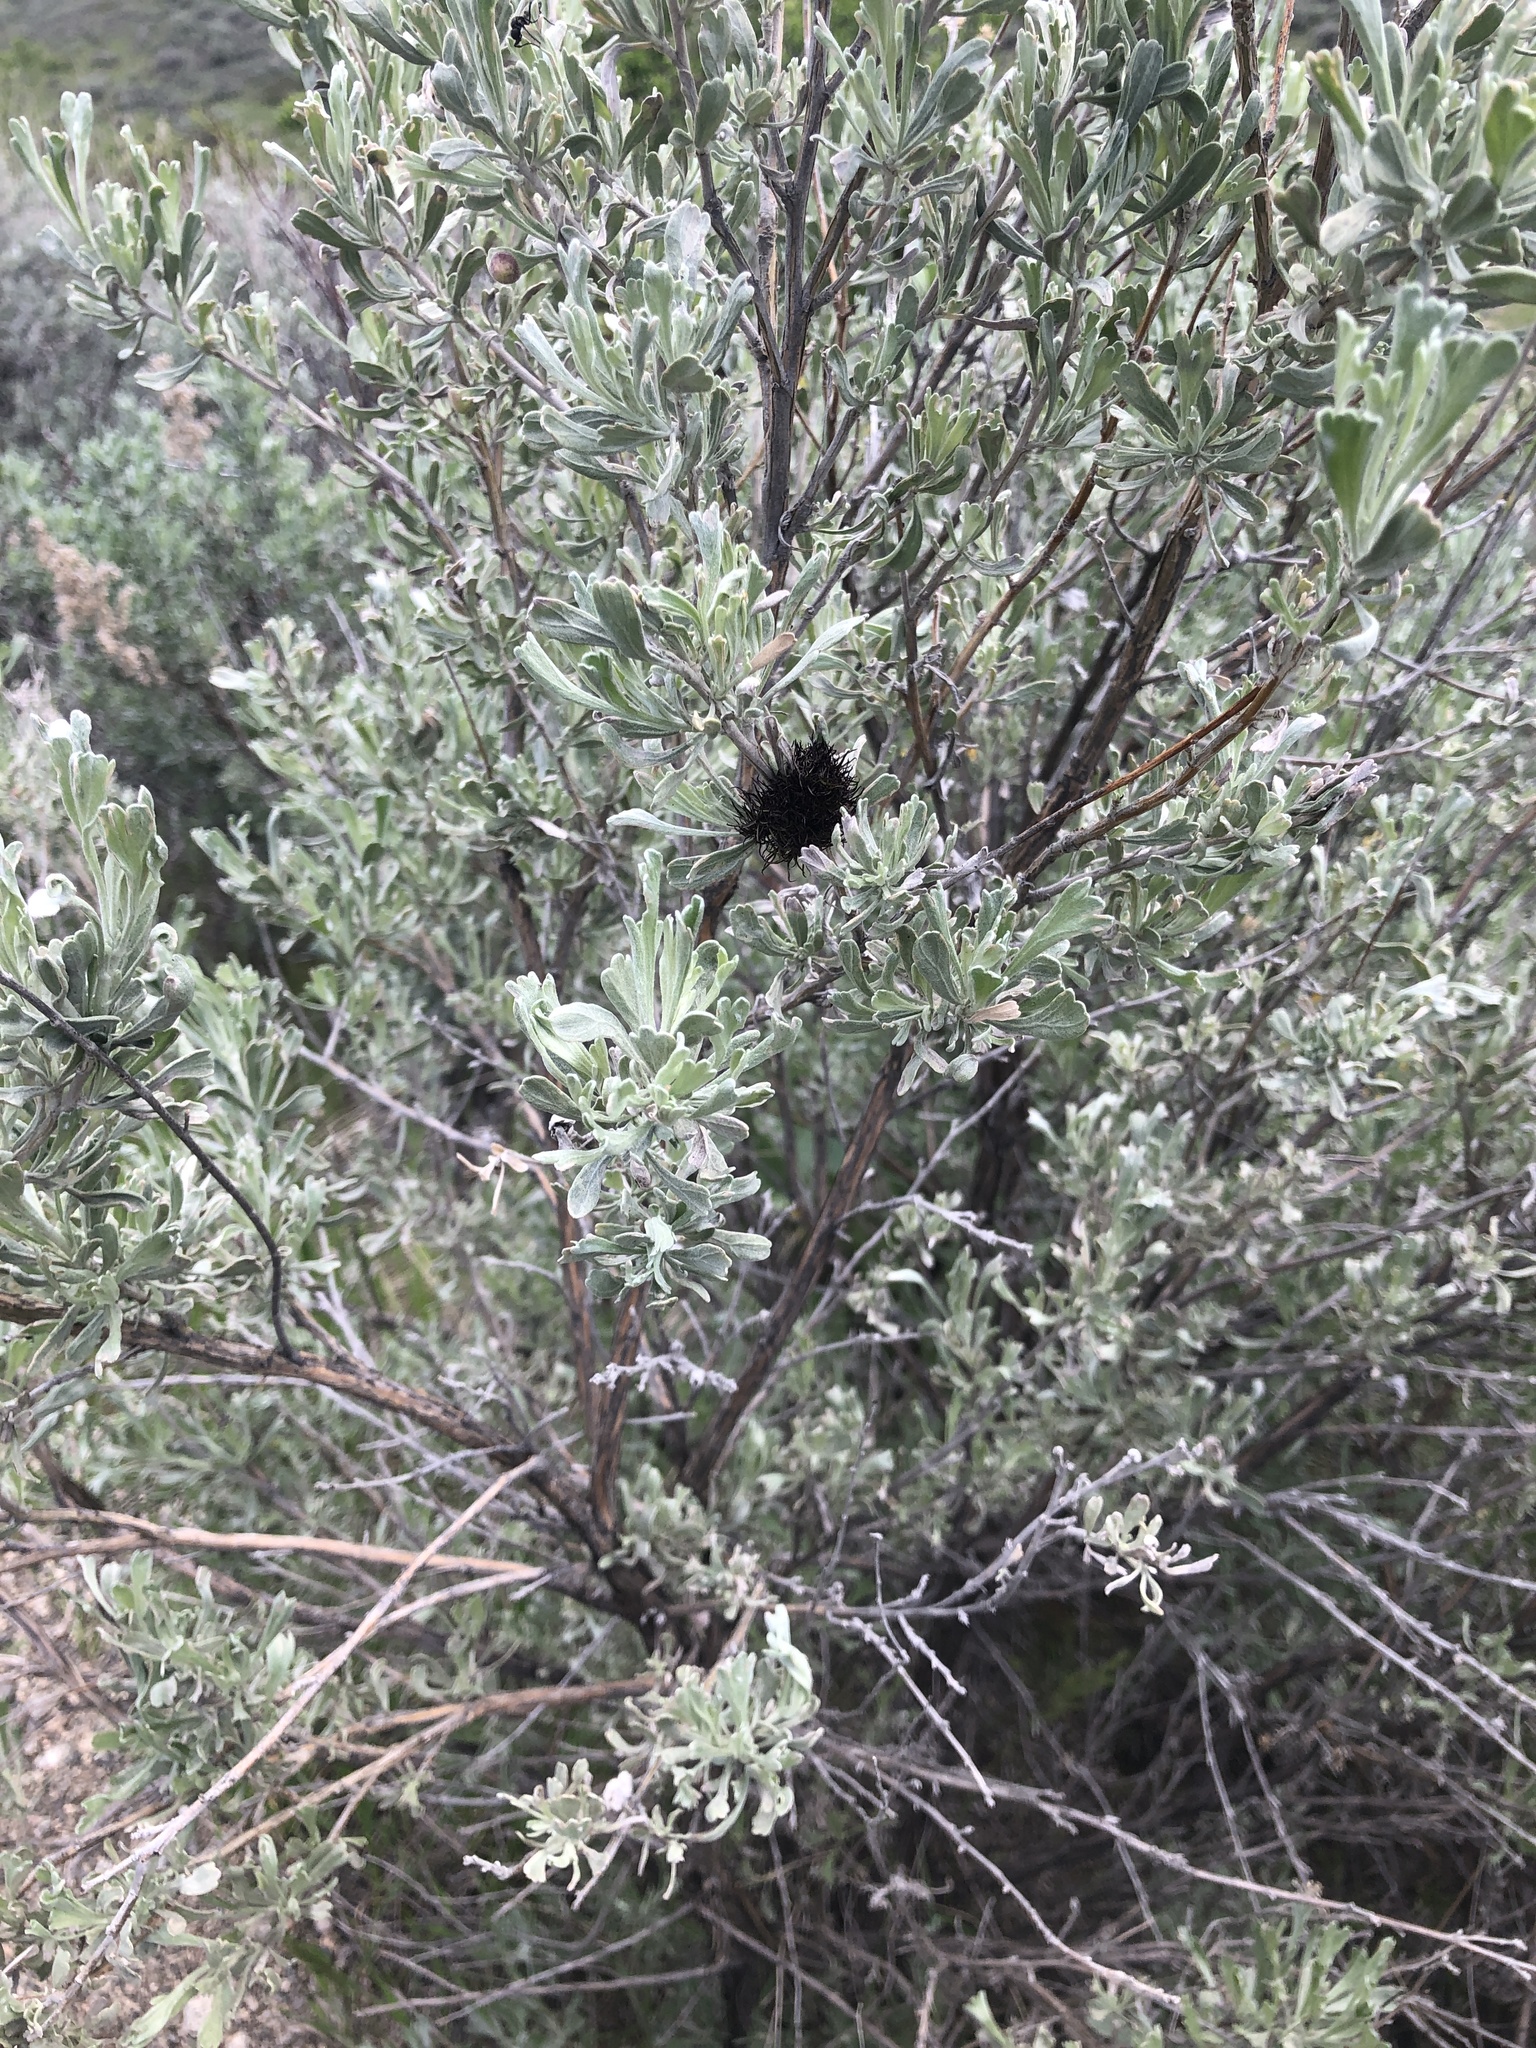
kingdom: Animalia
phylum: Arthropoda
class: Insecta
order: Diptera
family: Cecidomyiidae
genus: Rhopalomyia
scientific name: Rhopalomyia medusa
